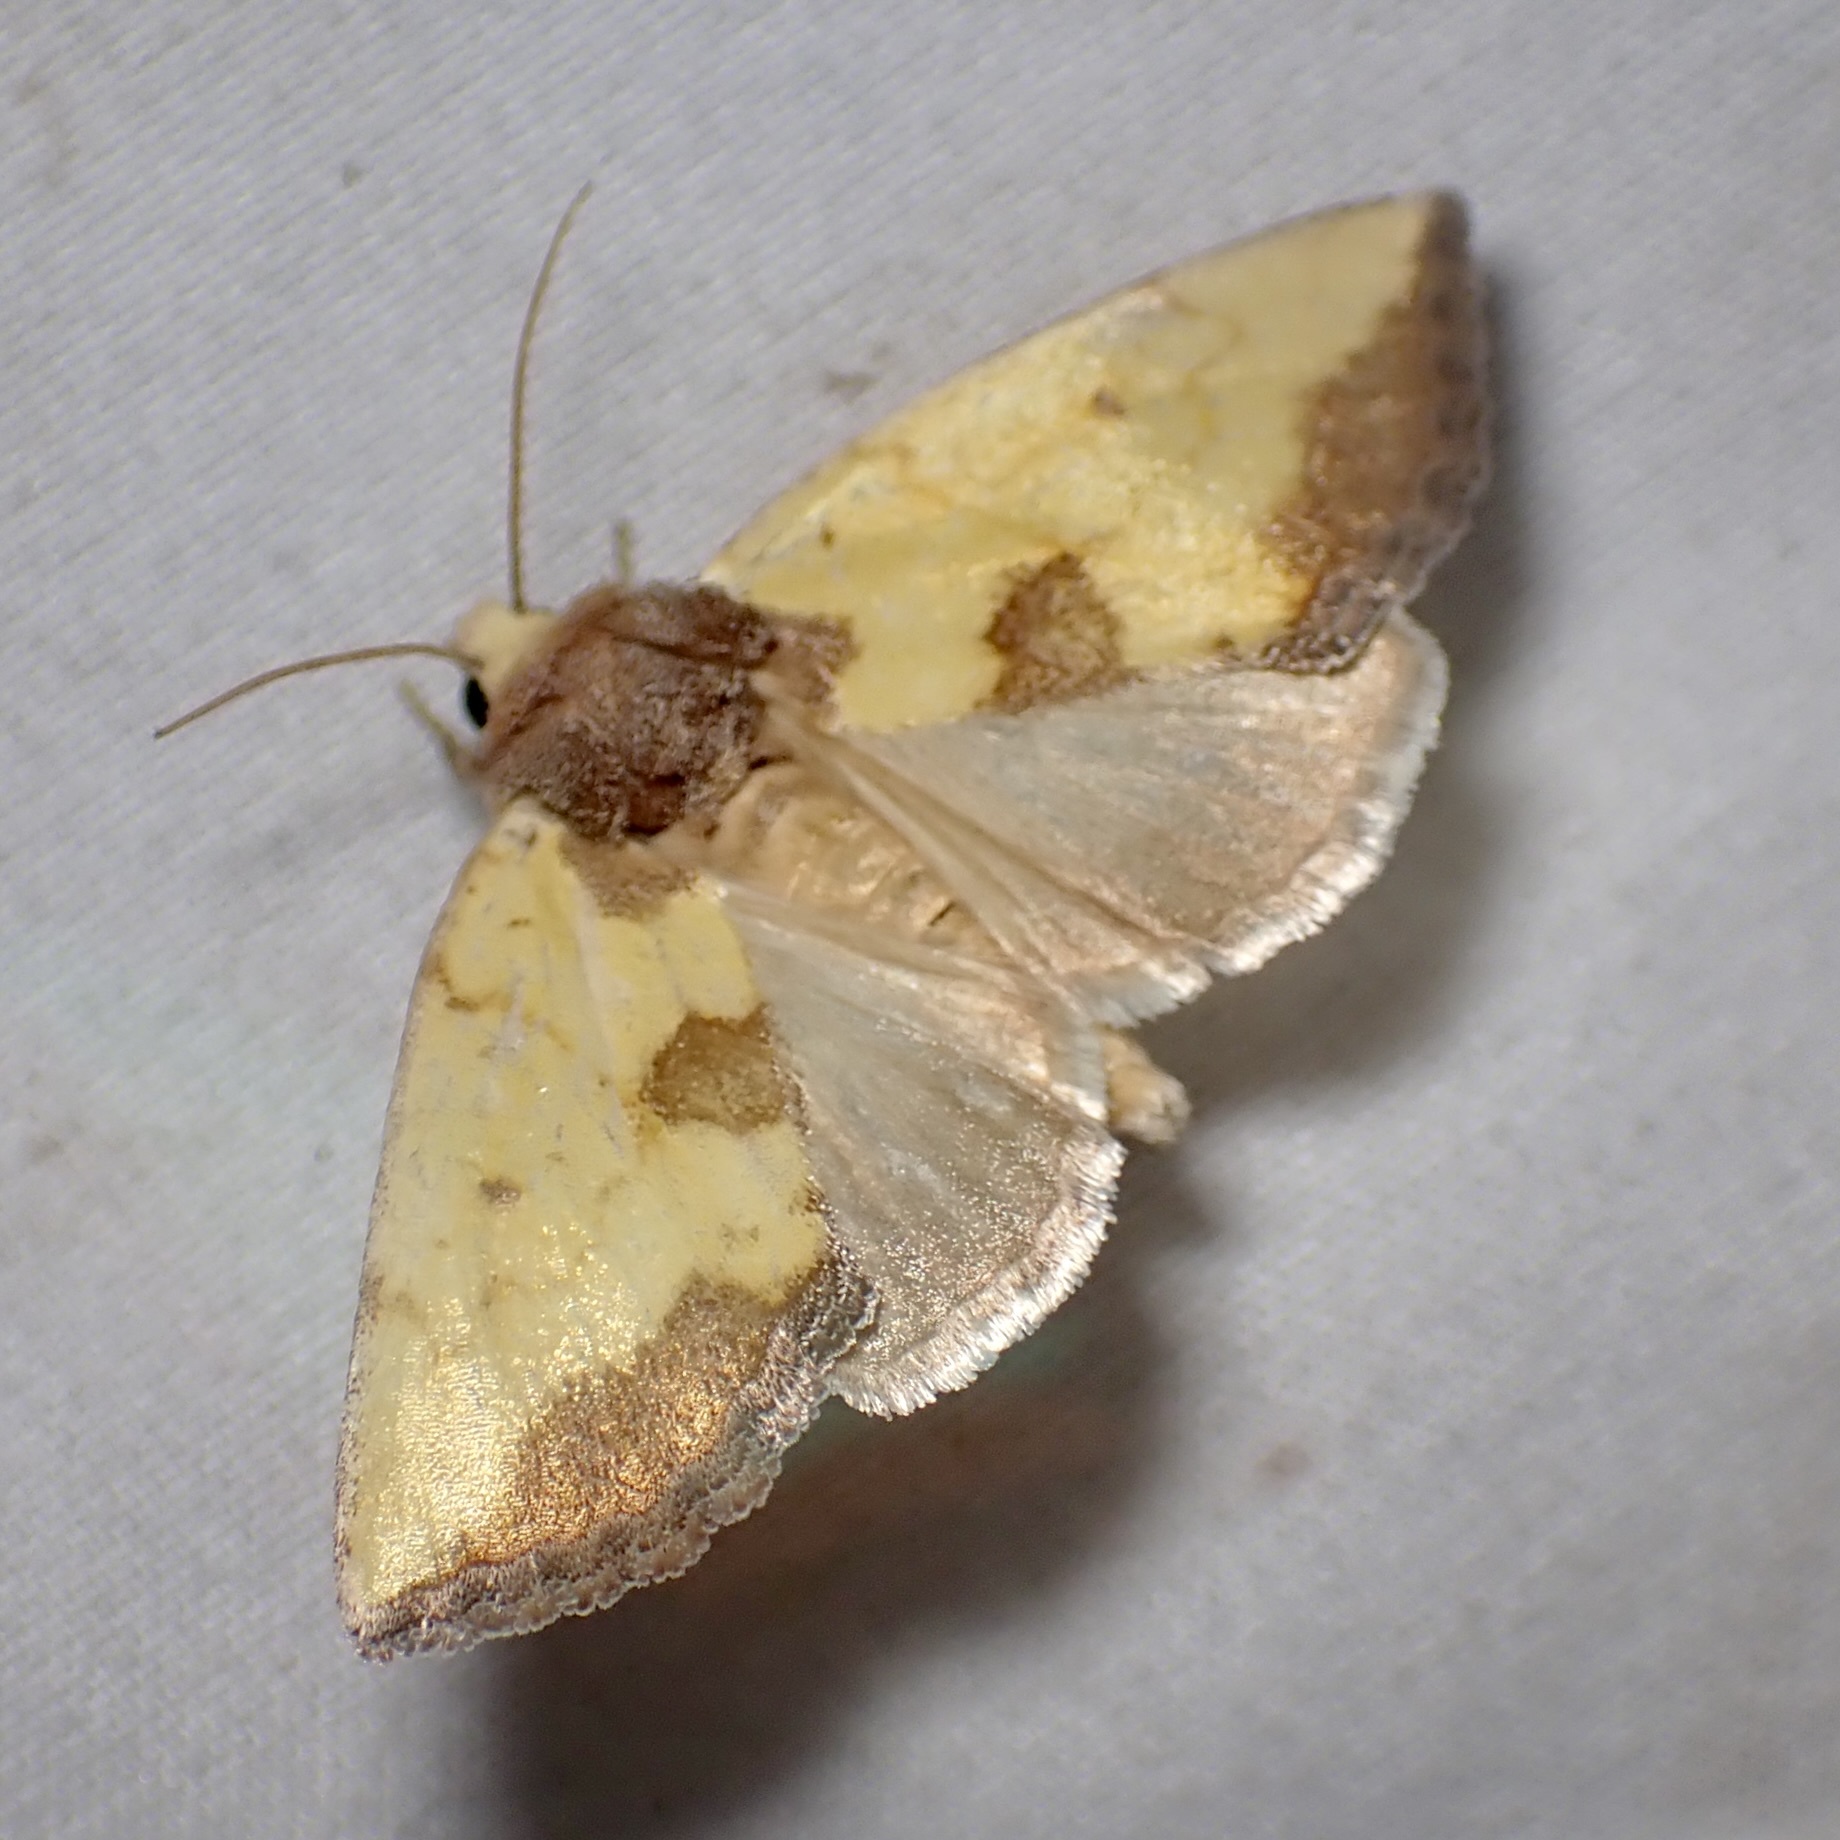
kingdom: Animalia
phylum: Arthropoda
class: Insecta
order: Lepidoptera
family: Noctuidae
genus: Stiria
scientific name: Stiria sulphurea
